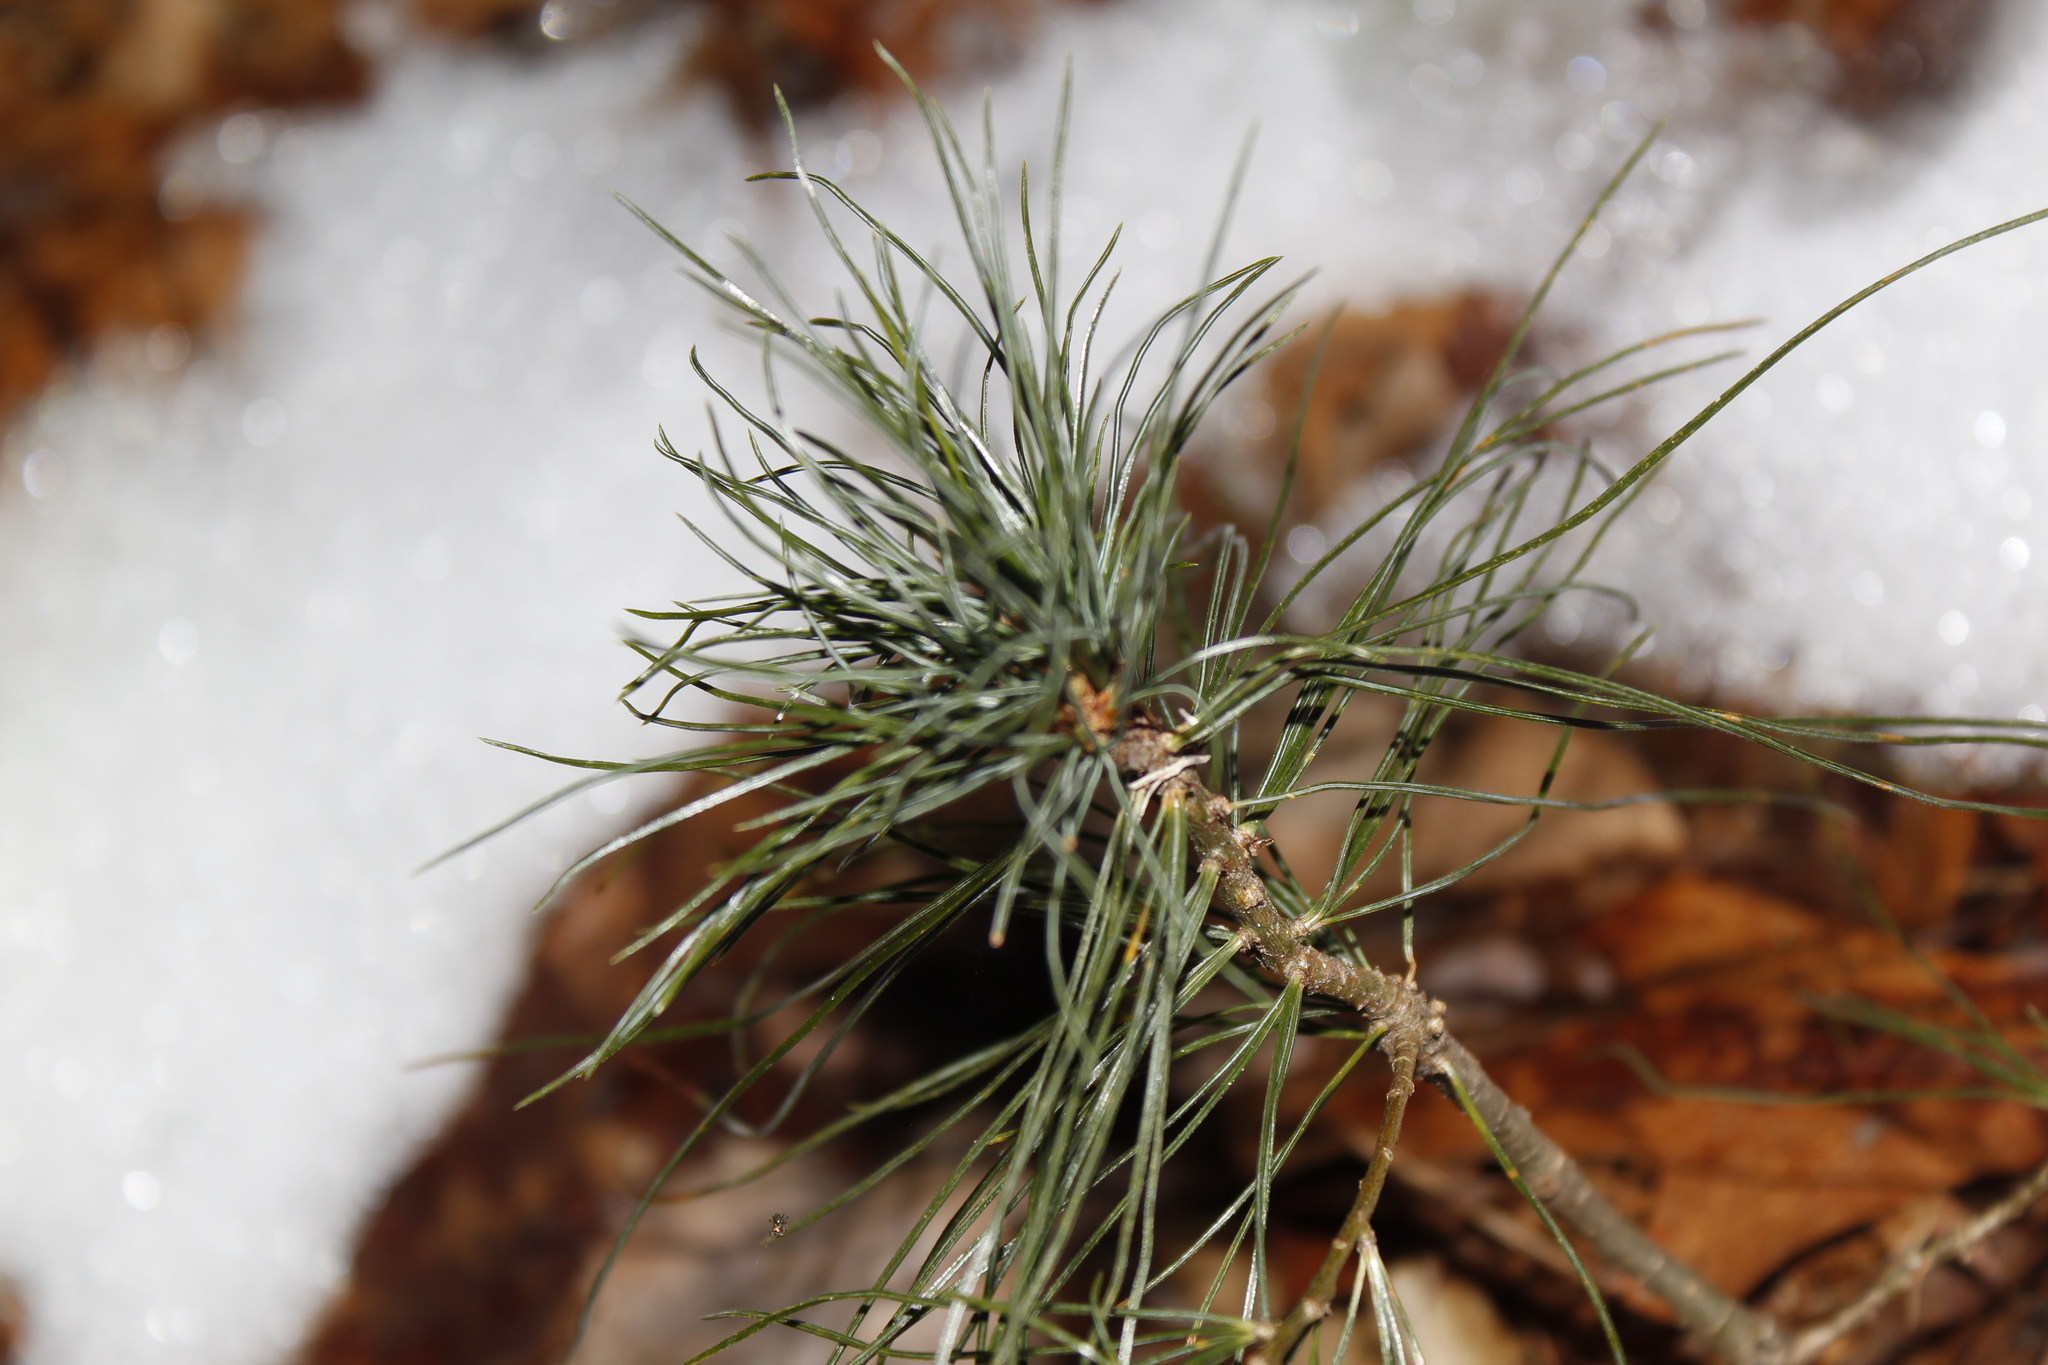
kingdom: Plantae
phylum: Tracheophyta
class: Pinopsida
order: Pinales
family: Pinaceae
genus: Pinus
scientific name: Pinus strobus
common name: Weymouth pine
